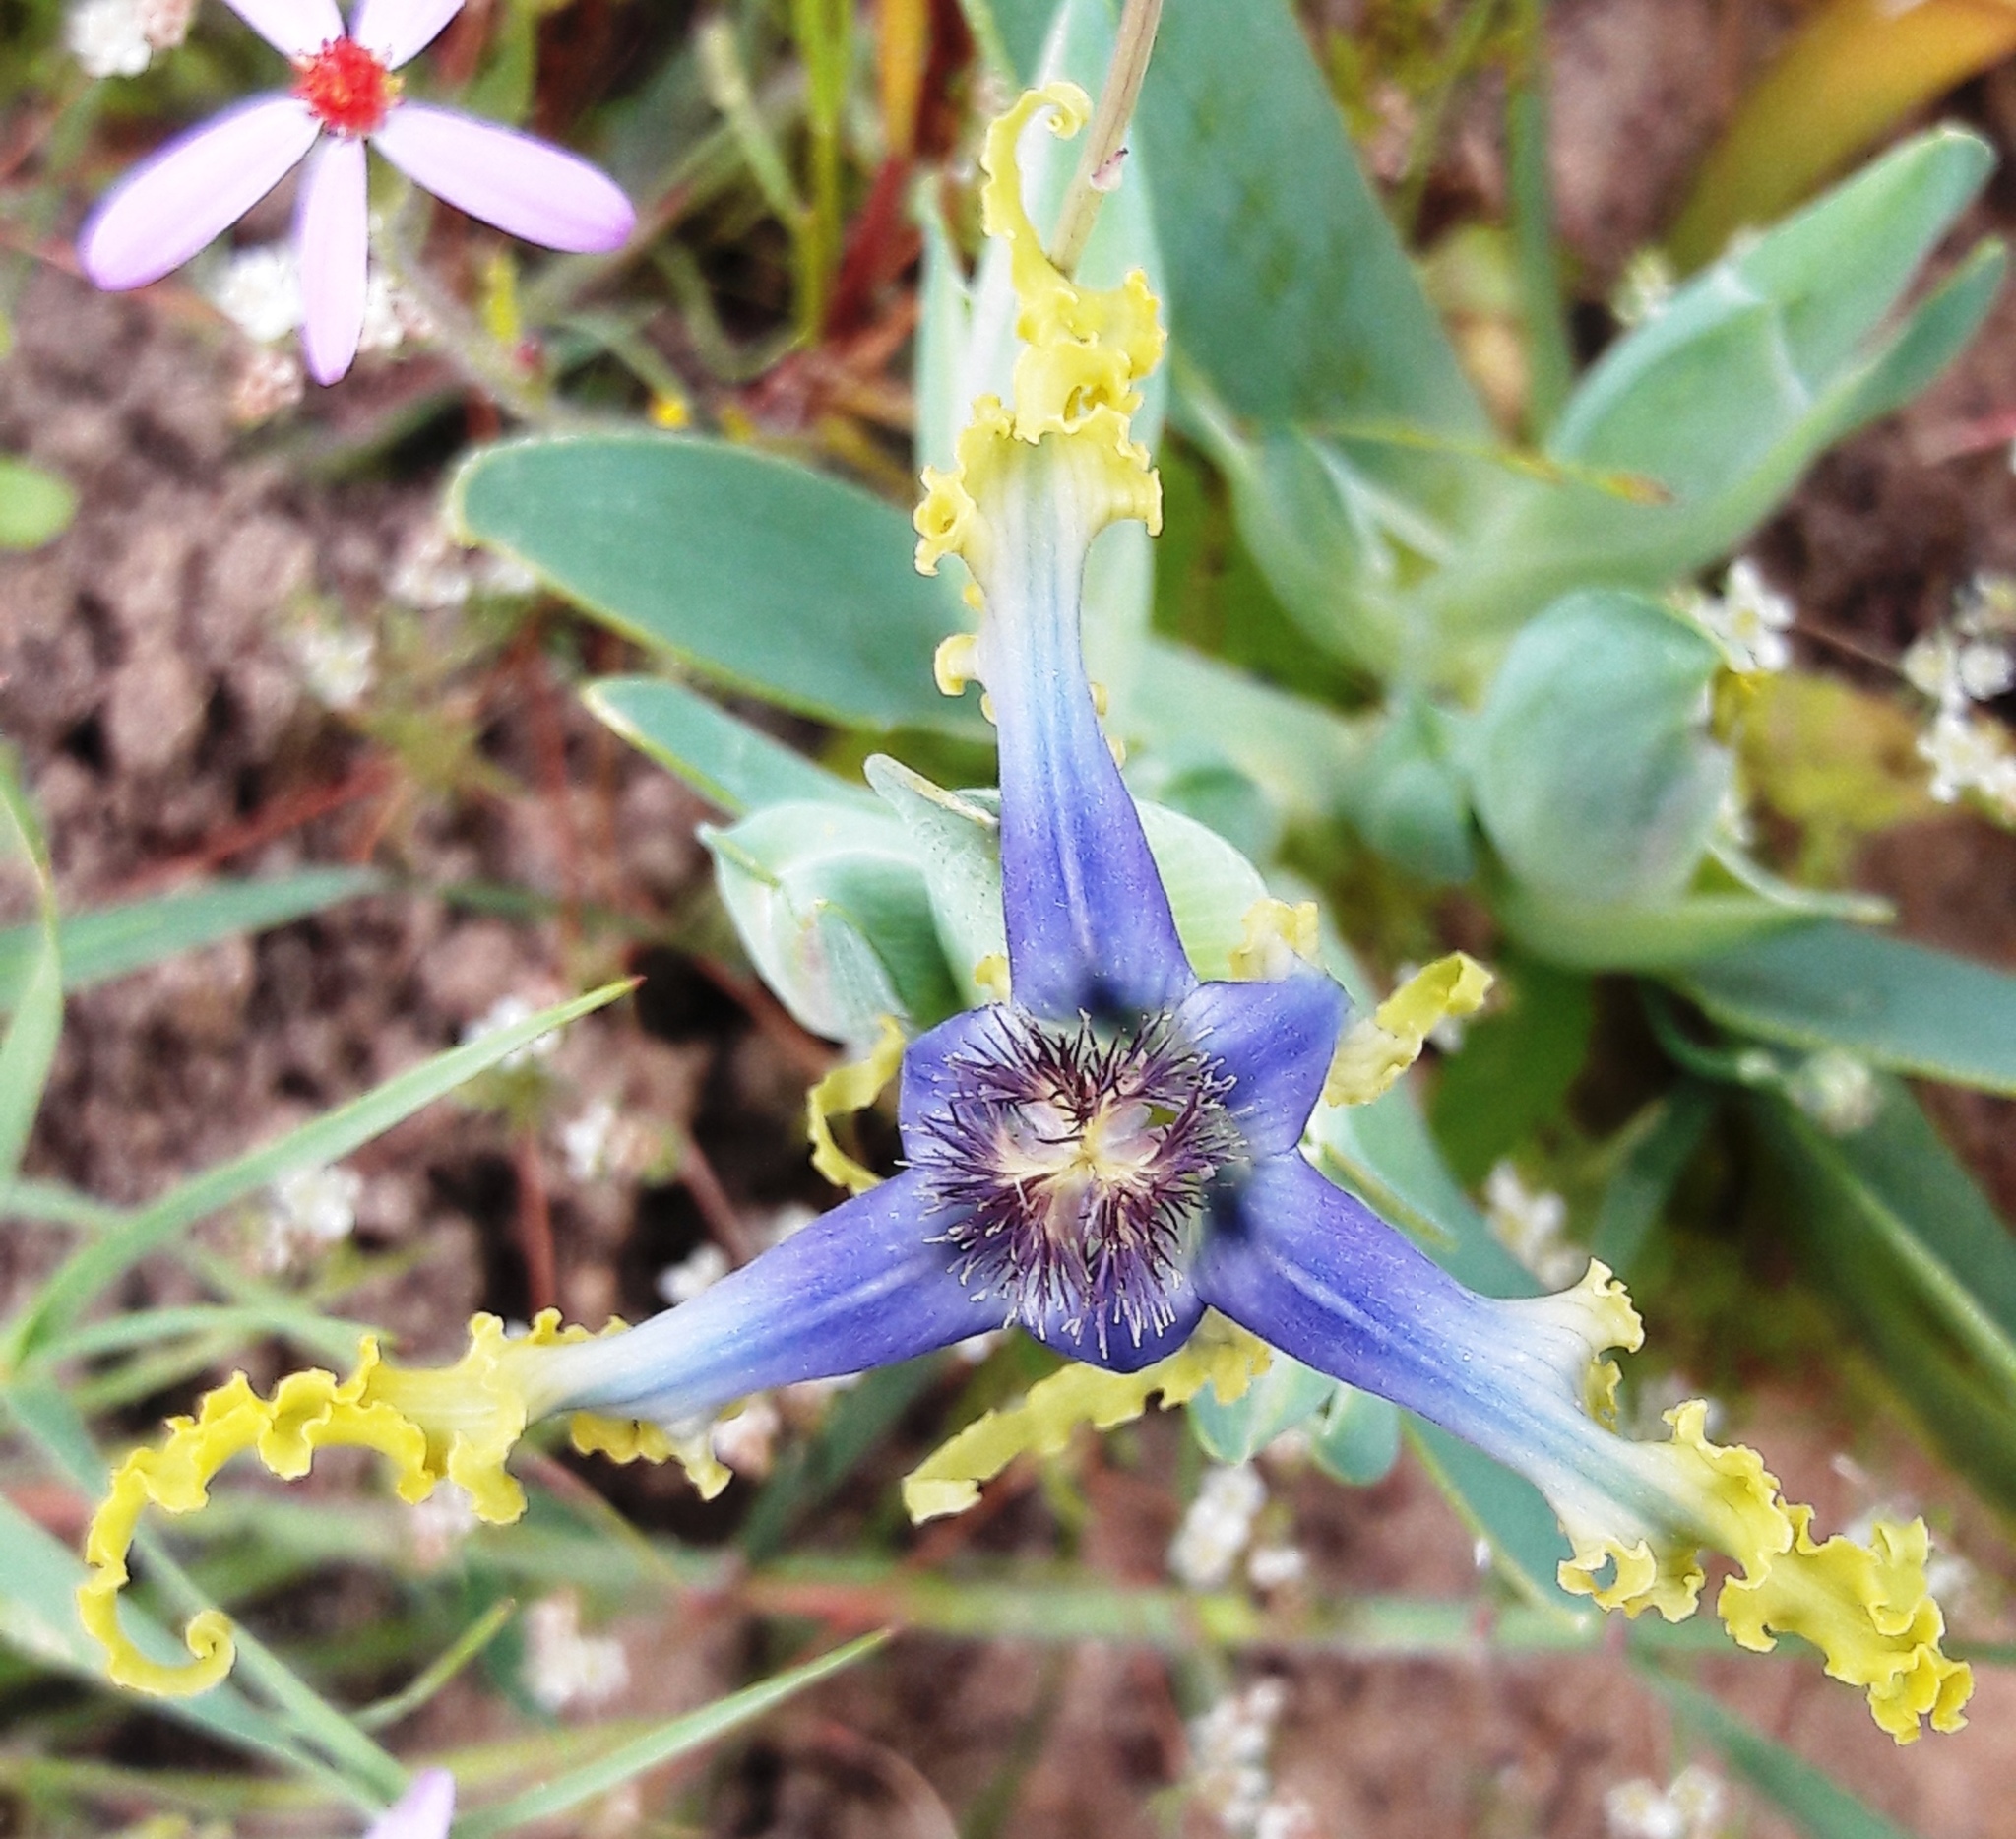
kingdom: Plantae
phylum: Tracheophyta
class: Liliopsida
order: Asparagales
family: Iridaceae
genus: Ferraria
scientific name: Ferraria uncinata
